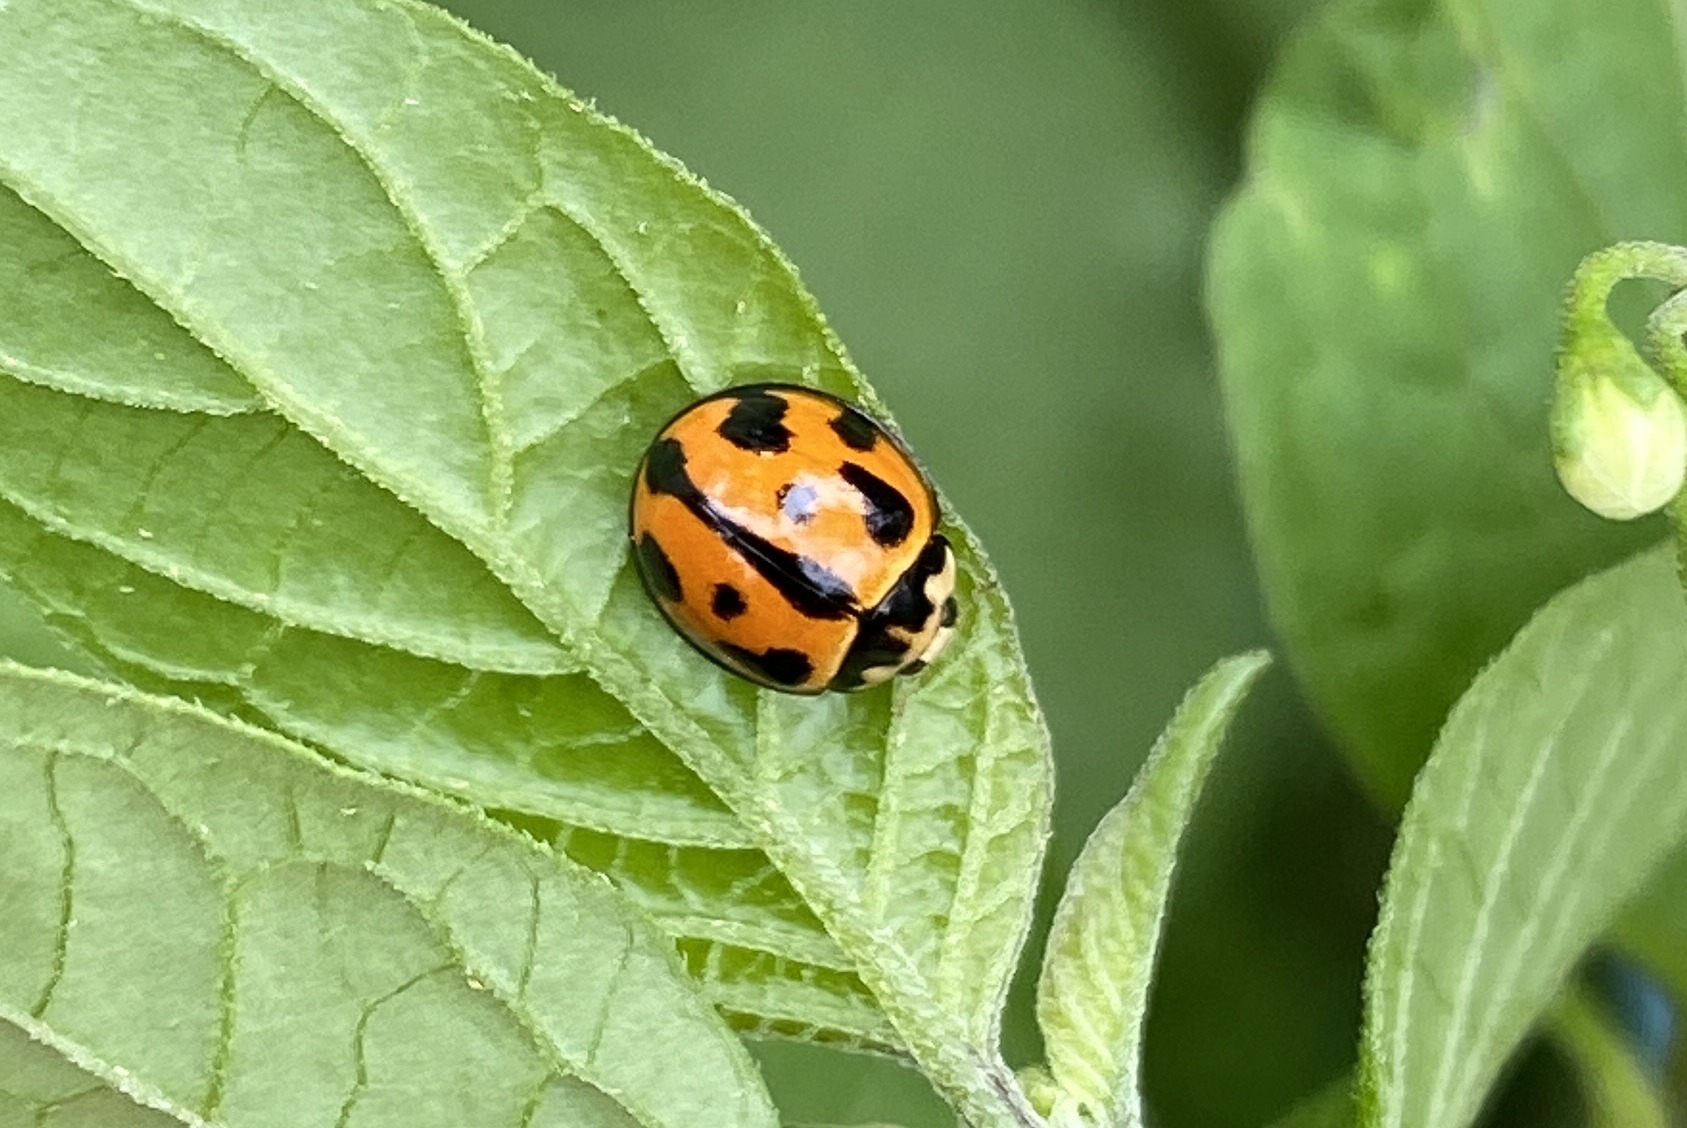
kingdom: Animalia
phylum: Arthropoda
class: Insecta
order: Coleoptera
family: Coccinellidae
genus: Coelophora
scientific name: Coelophora inaequalis
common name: Common australian lady beetle
